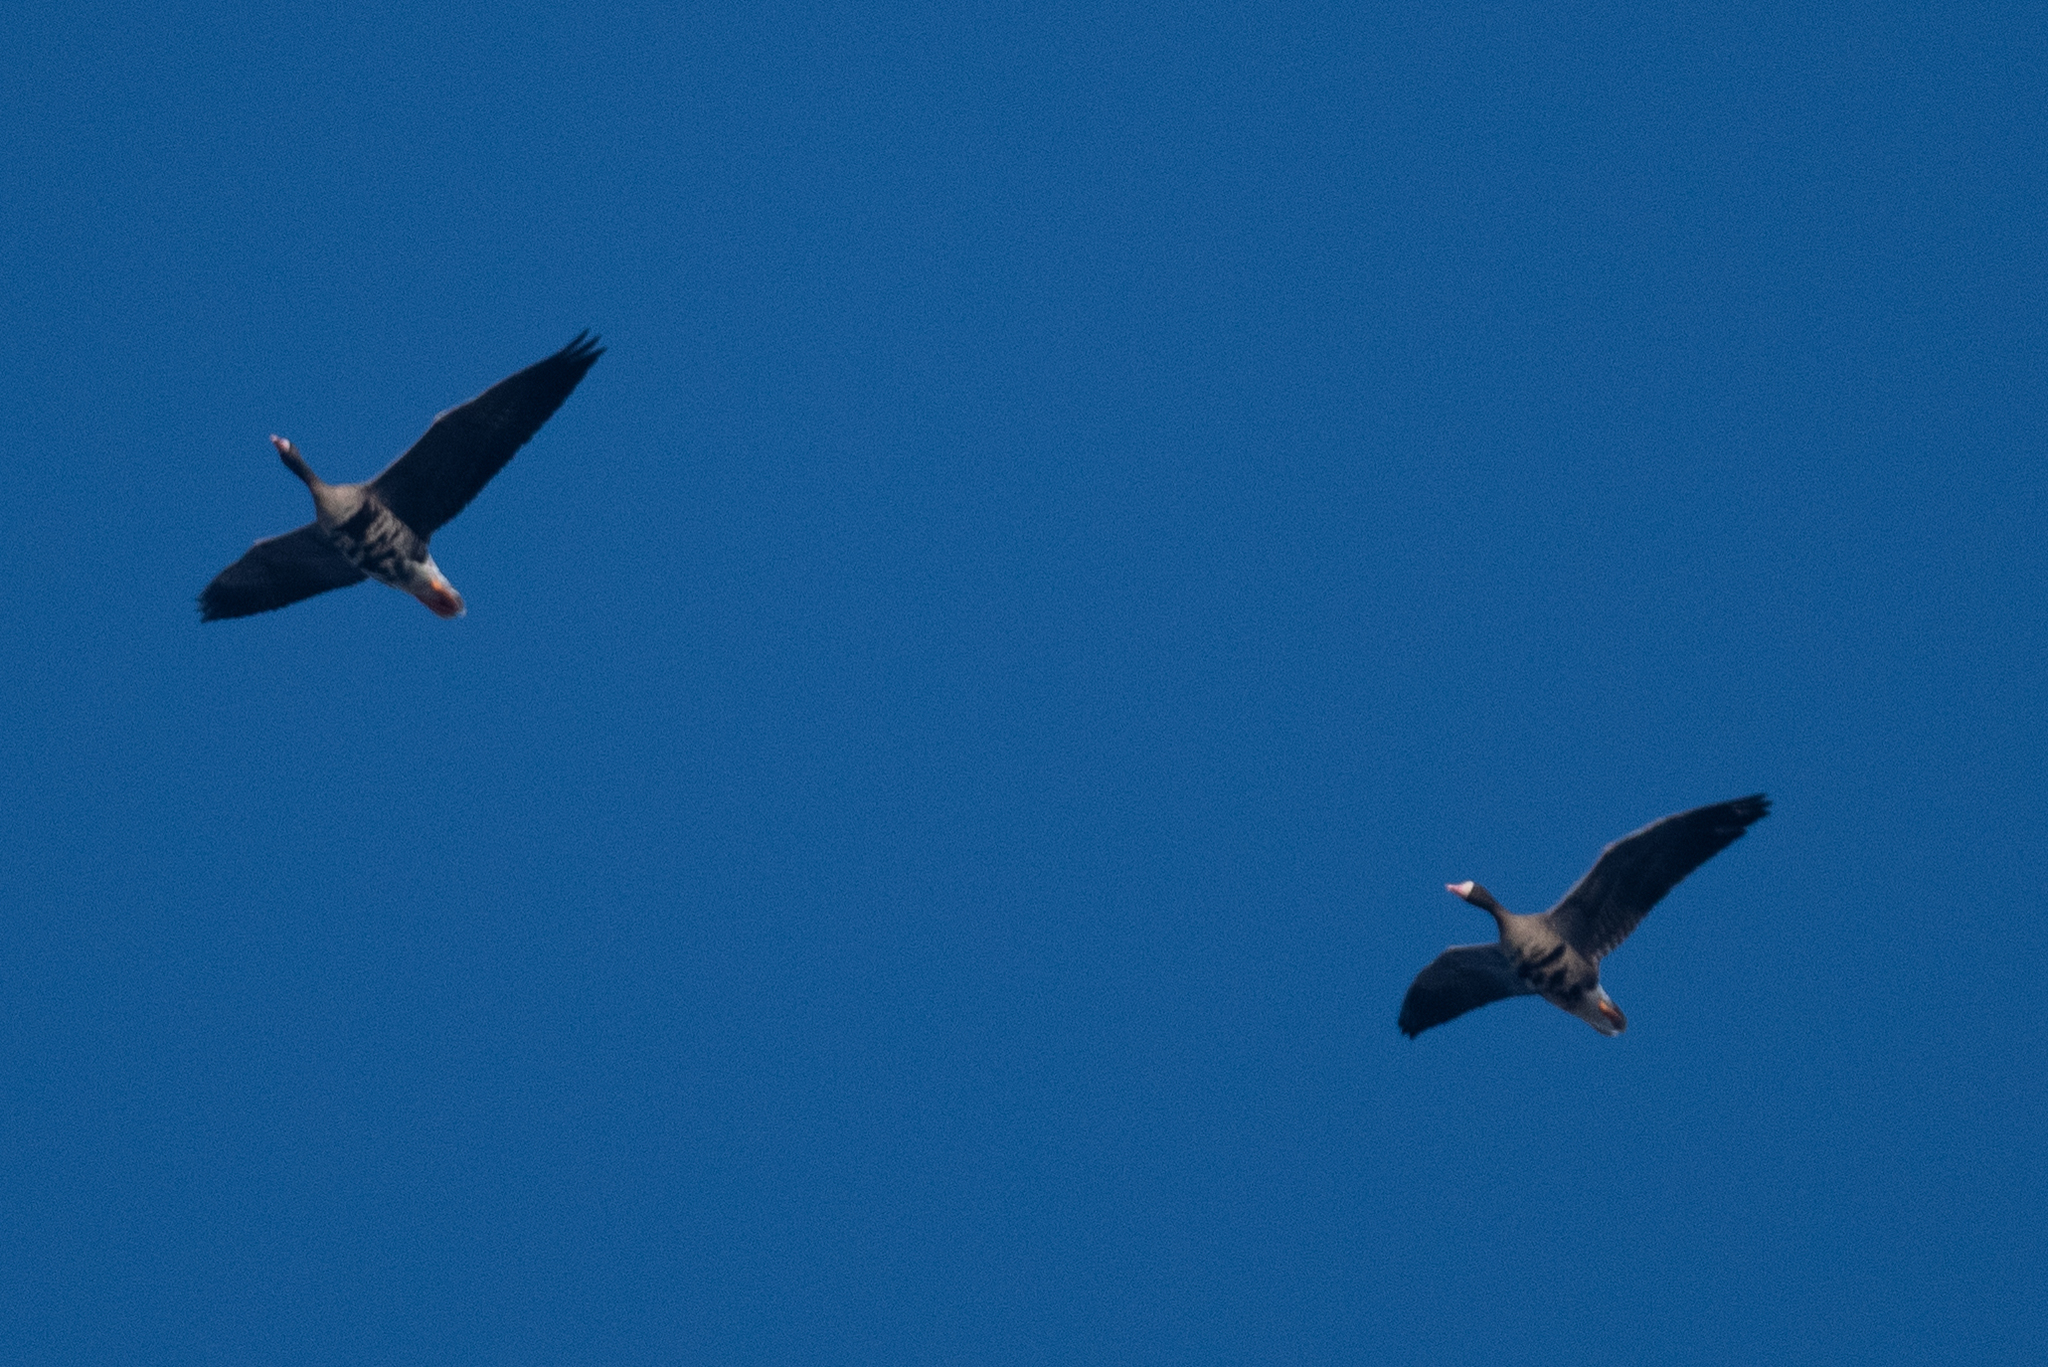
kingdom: Animalia
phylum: Chordata
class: Aves
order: Anseriformes
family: Anatidae
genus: Anser
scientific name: Anser albifrons
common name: Greater white-fronted goose
